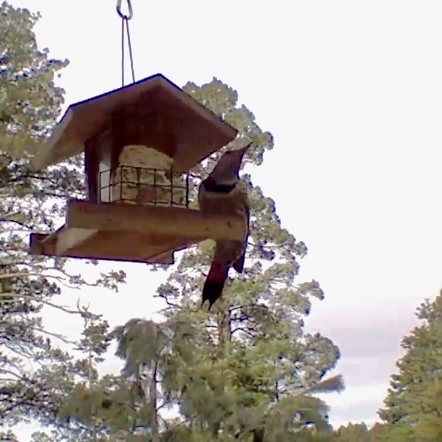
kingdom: Animalia
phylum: Chordata
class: Aves
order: Piciformes
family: Picidae
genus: Colaptes
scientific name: Colaptes auratus
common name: Northern flicker
